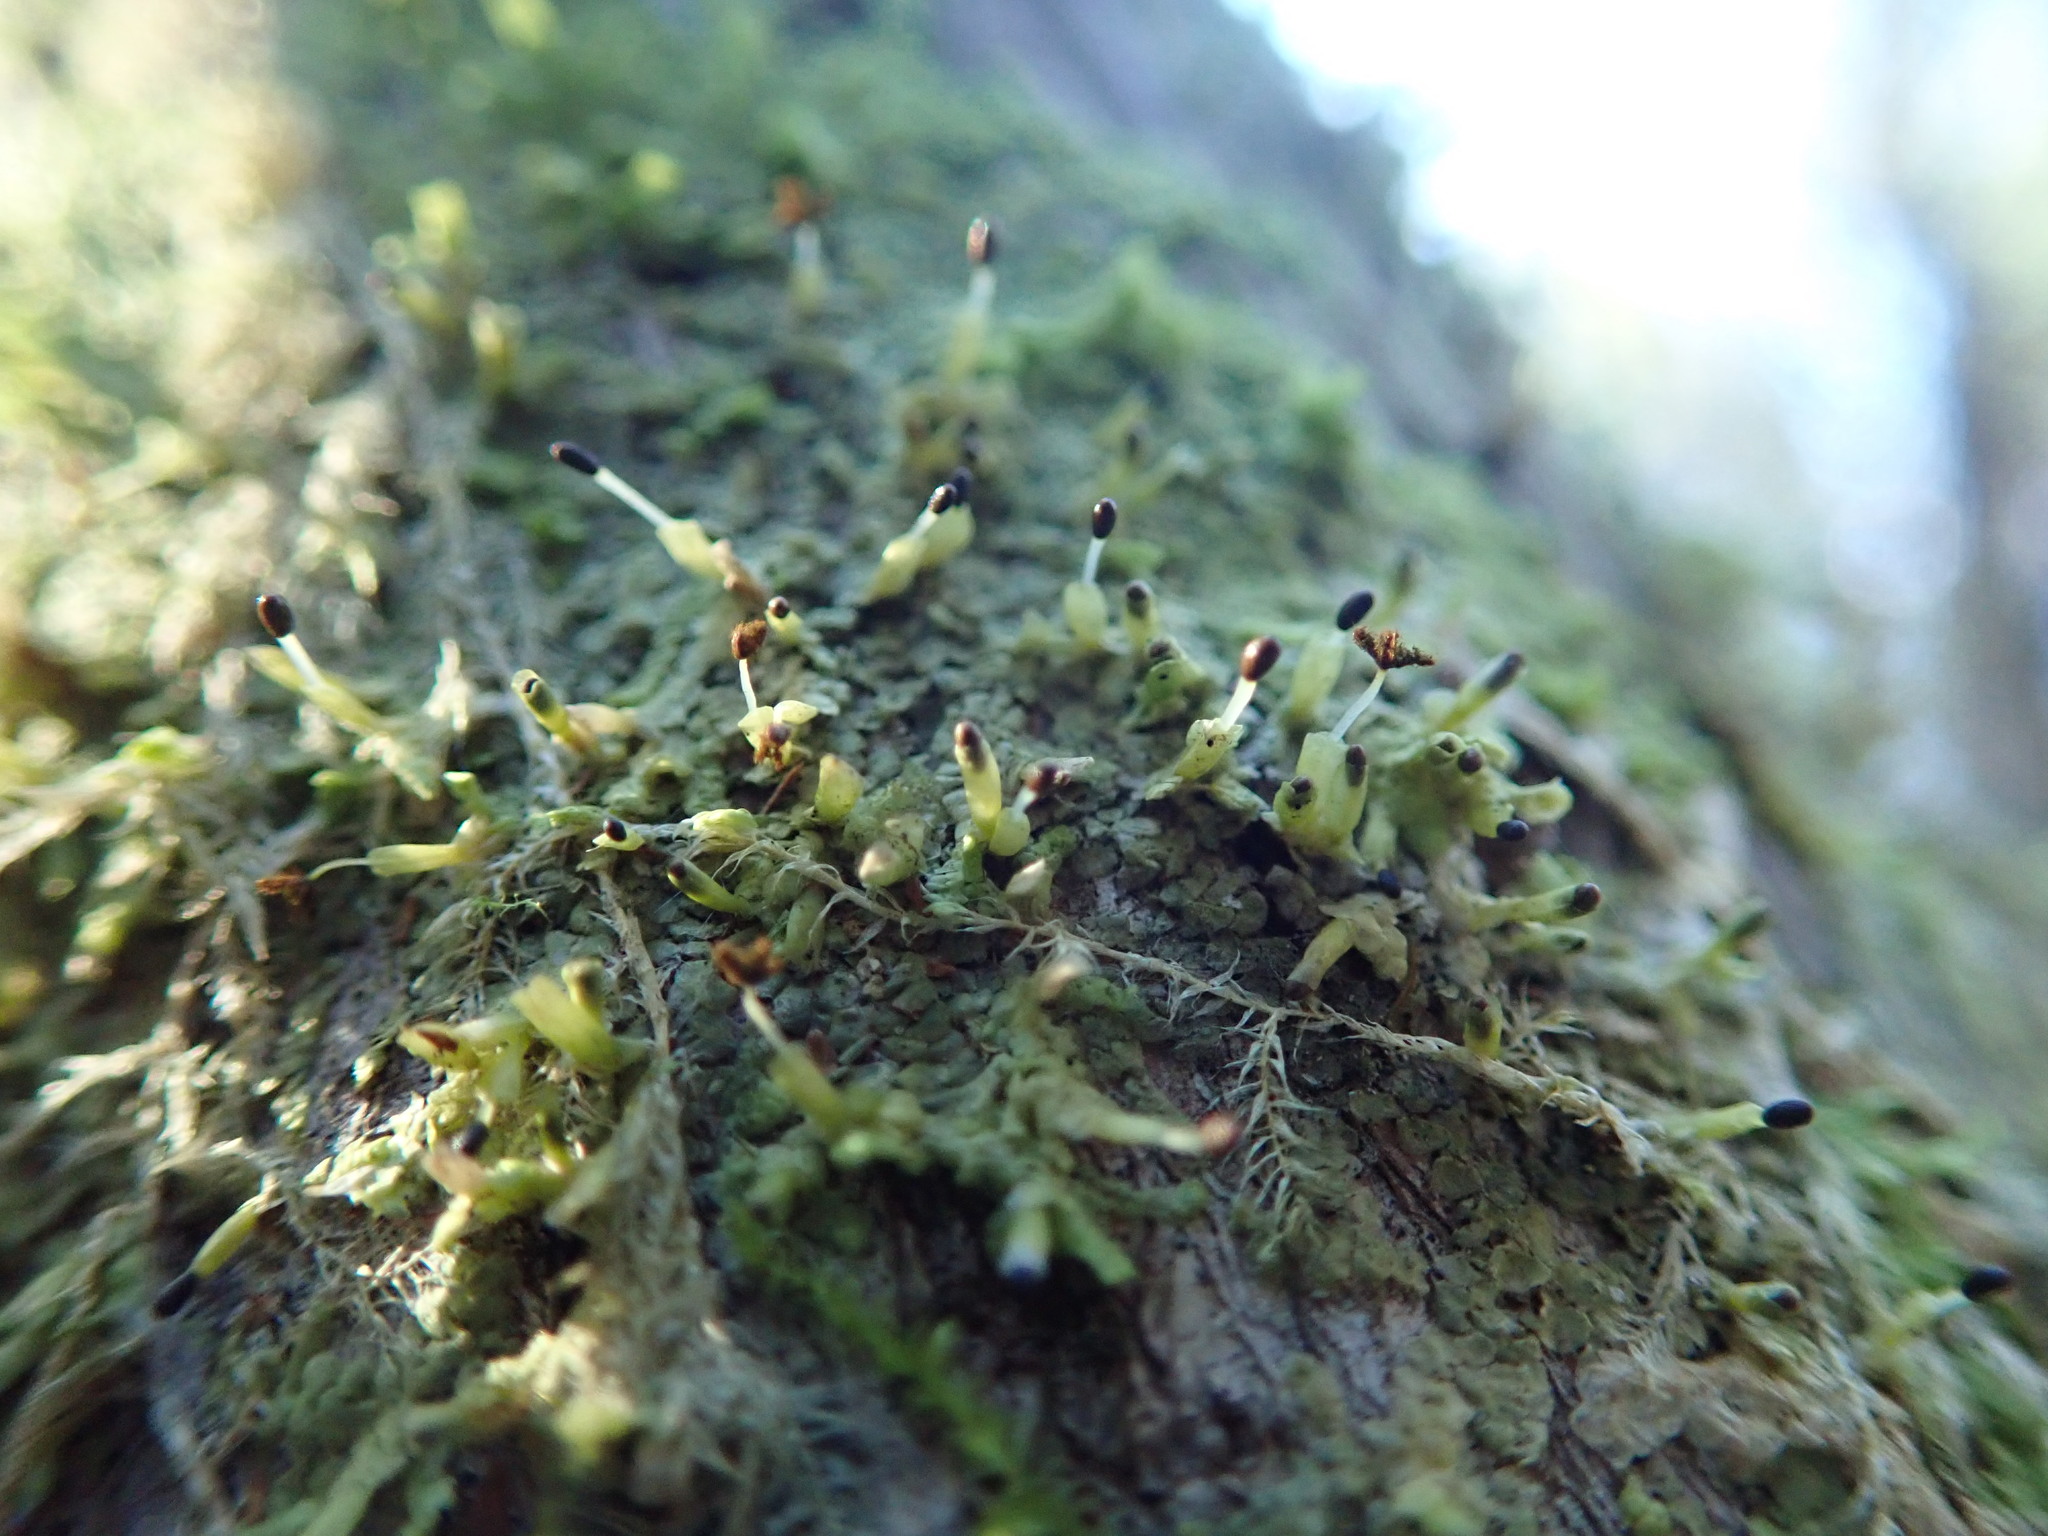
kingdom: Plantae
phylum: Marchantiophyta
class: Jungermanniopsida
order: Porellales
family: Radulaceae
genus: Radula
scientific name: Radula complanata
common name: Flat-leaved scalewort
